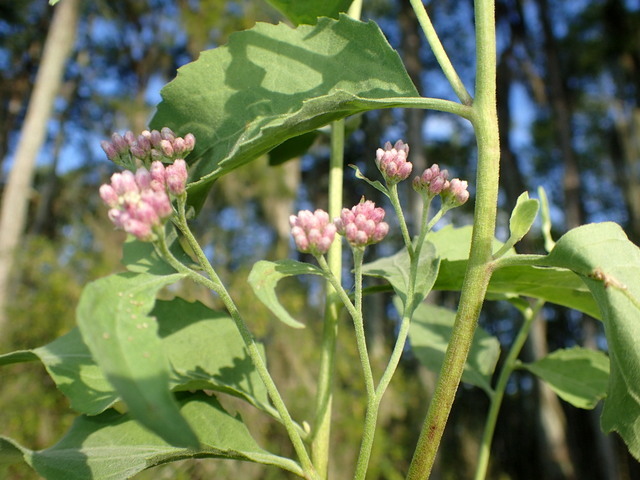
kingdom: Plantae
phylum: Tracheophyta
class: Magnoliopsida
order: Asterales
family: Asteraceae
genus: Pluchea
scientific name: Pluchea odorata
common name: Saltmarsh fleabane
